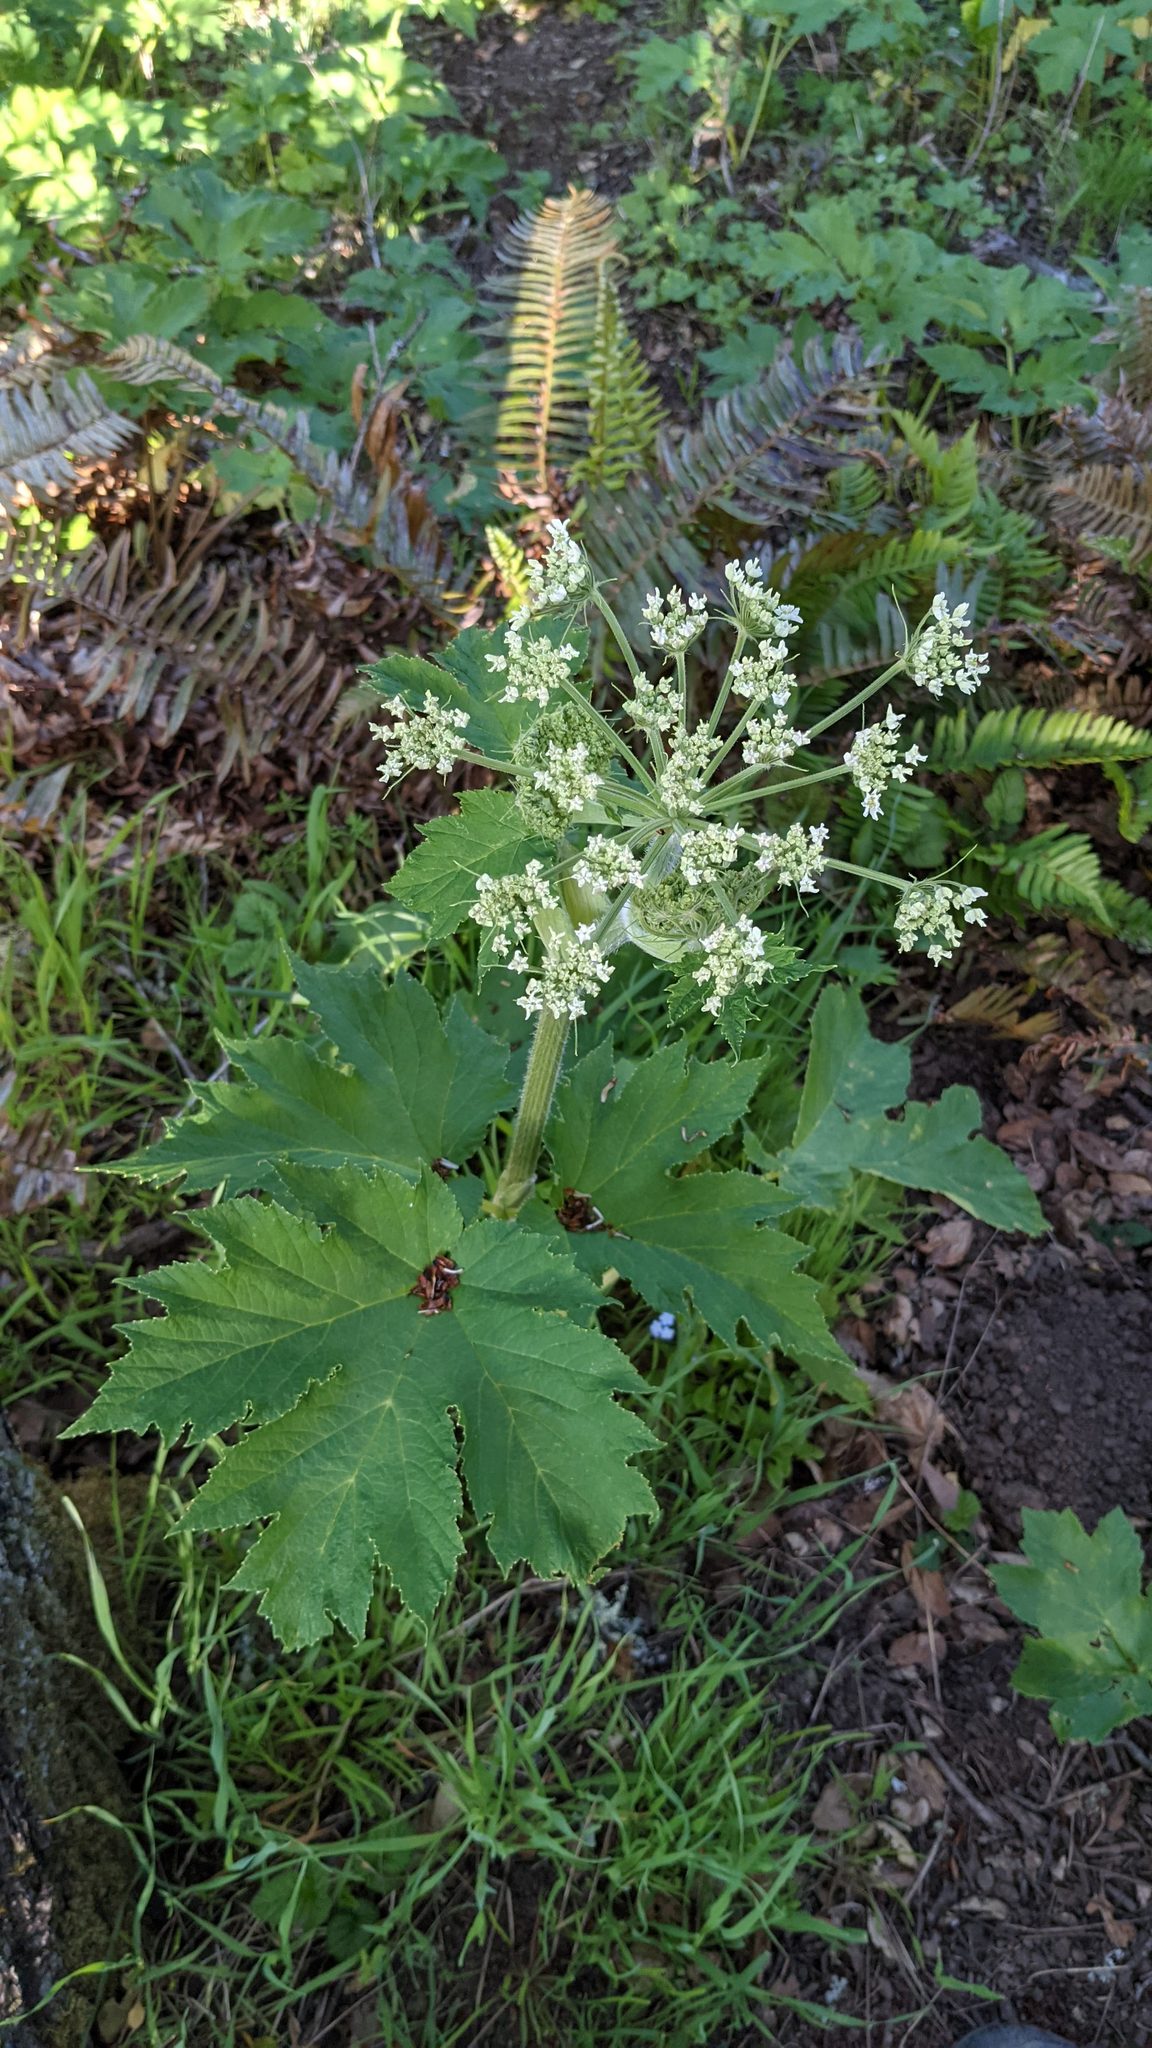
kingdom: Plantae
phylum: Tracheophyta
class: Magnoliopsida
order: Apiales
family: Apiaceae
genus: Heracleum
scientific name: Heracleum maximum
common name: American cow parsnip
